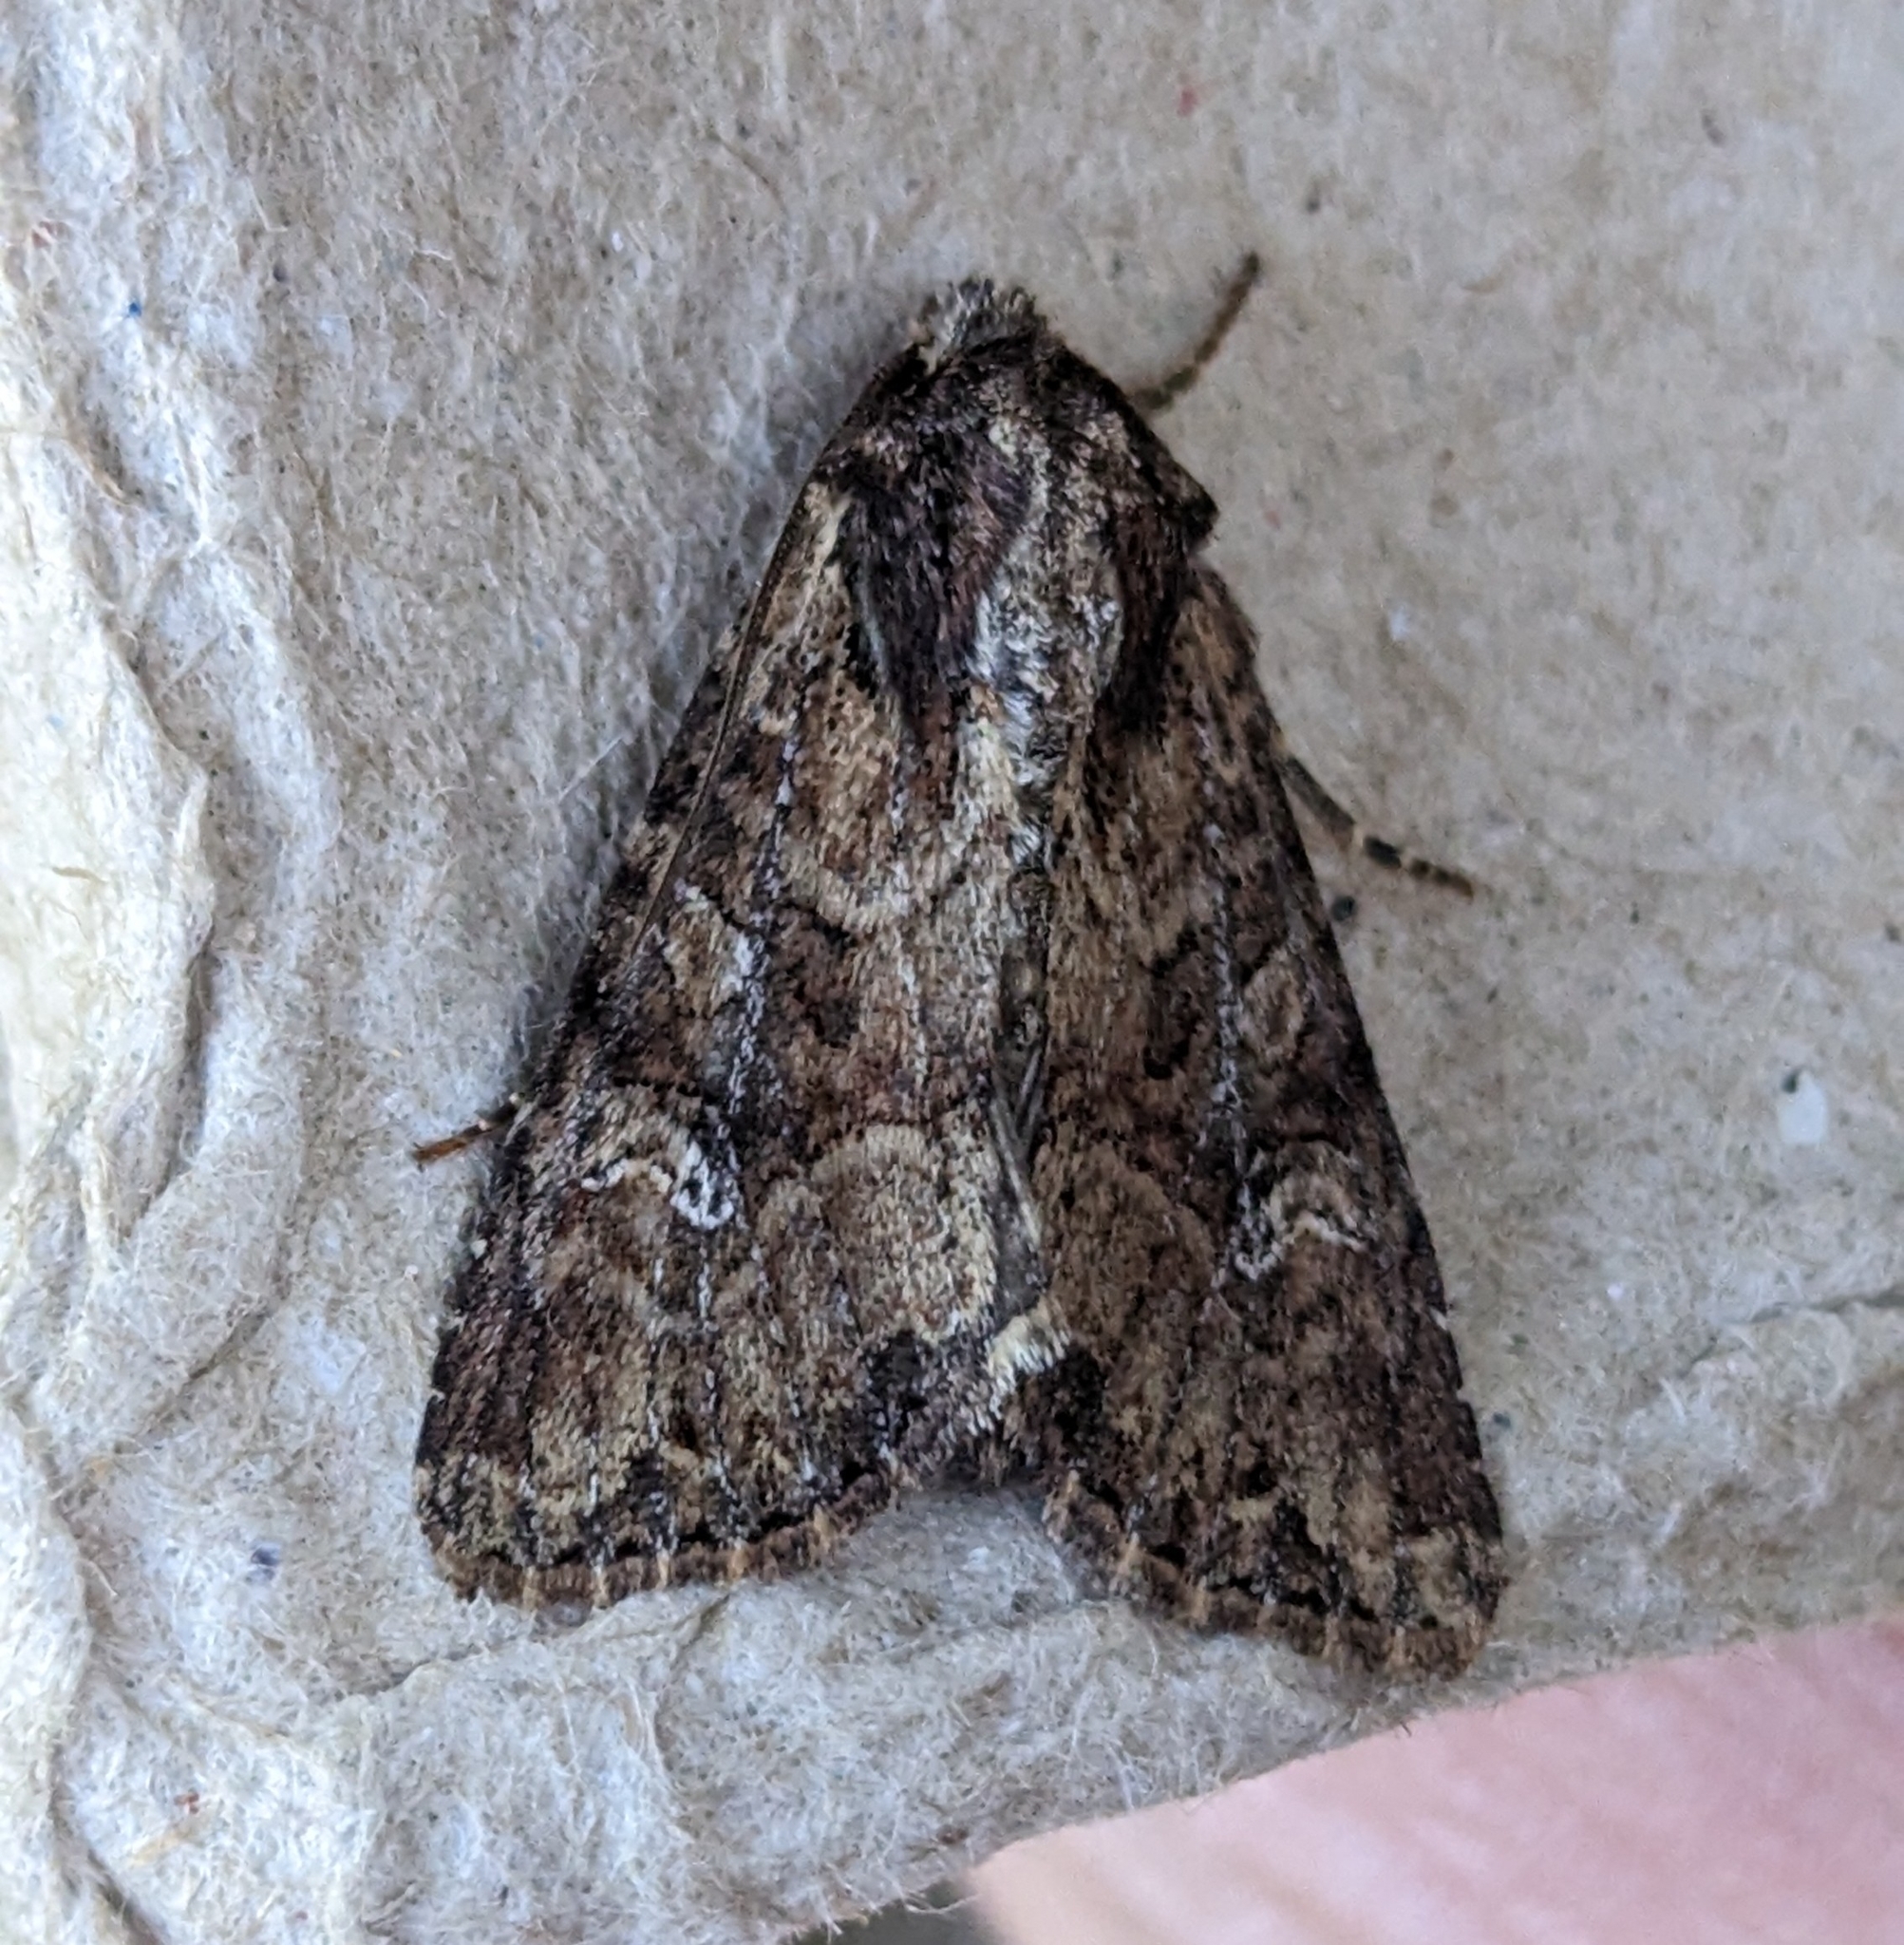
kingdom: Animalia
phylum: Arthropoda
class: Insecta
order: Lepidoptera
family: Noctuidae
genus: Apamea
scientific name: Apamea unanimis
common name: Small clouded brindle
